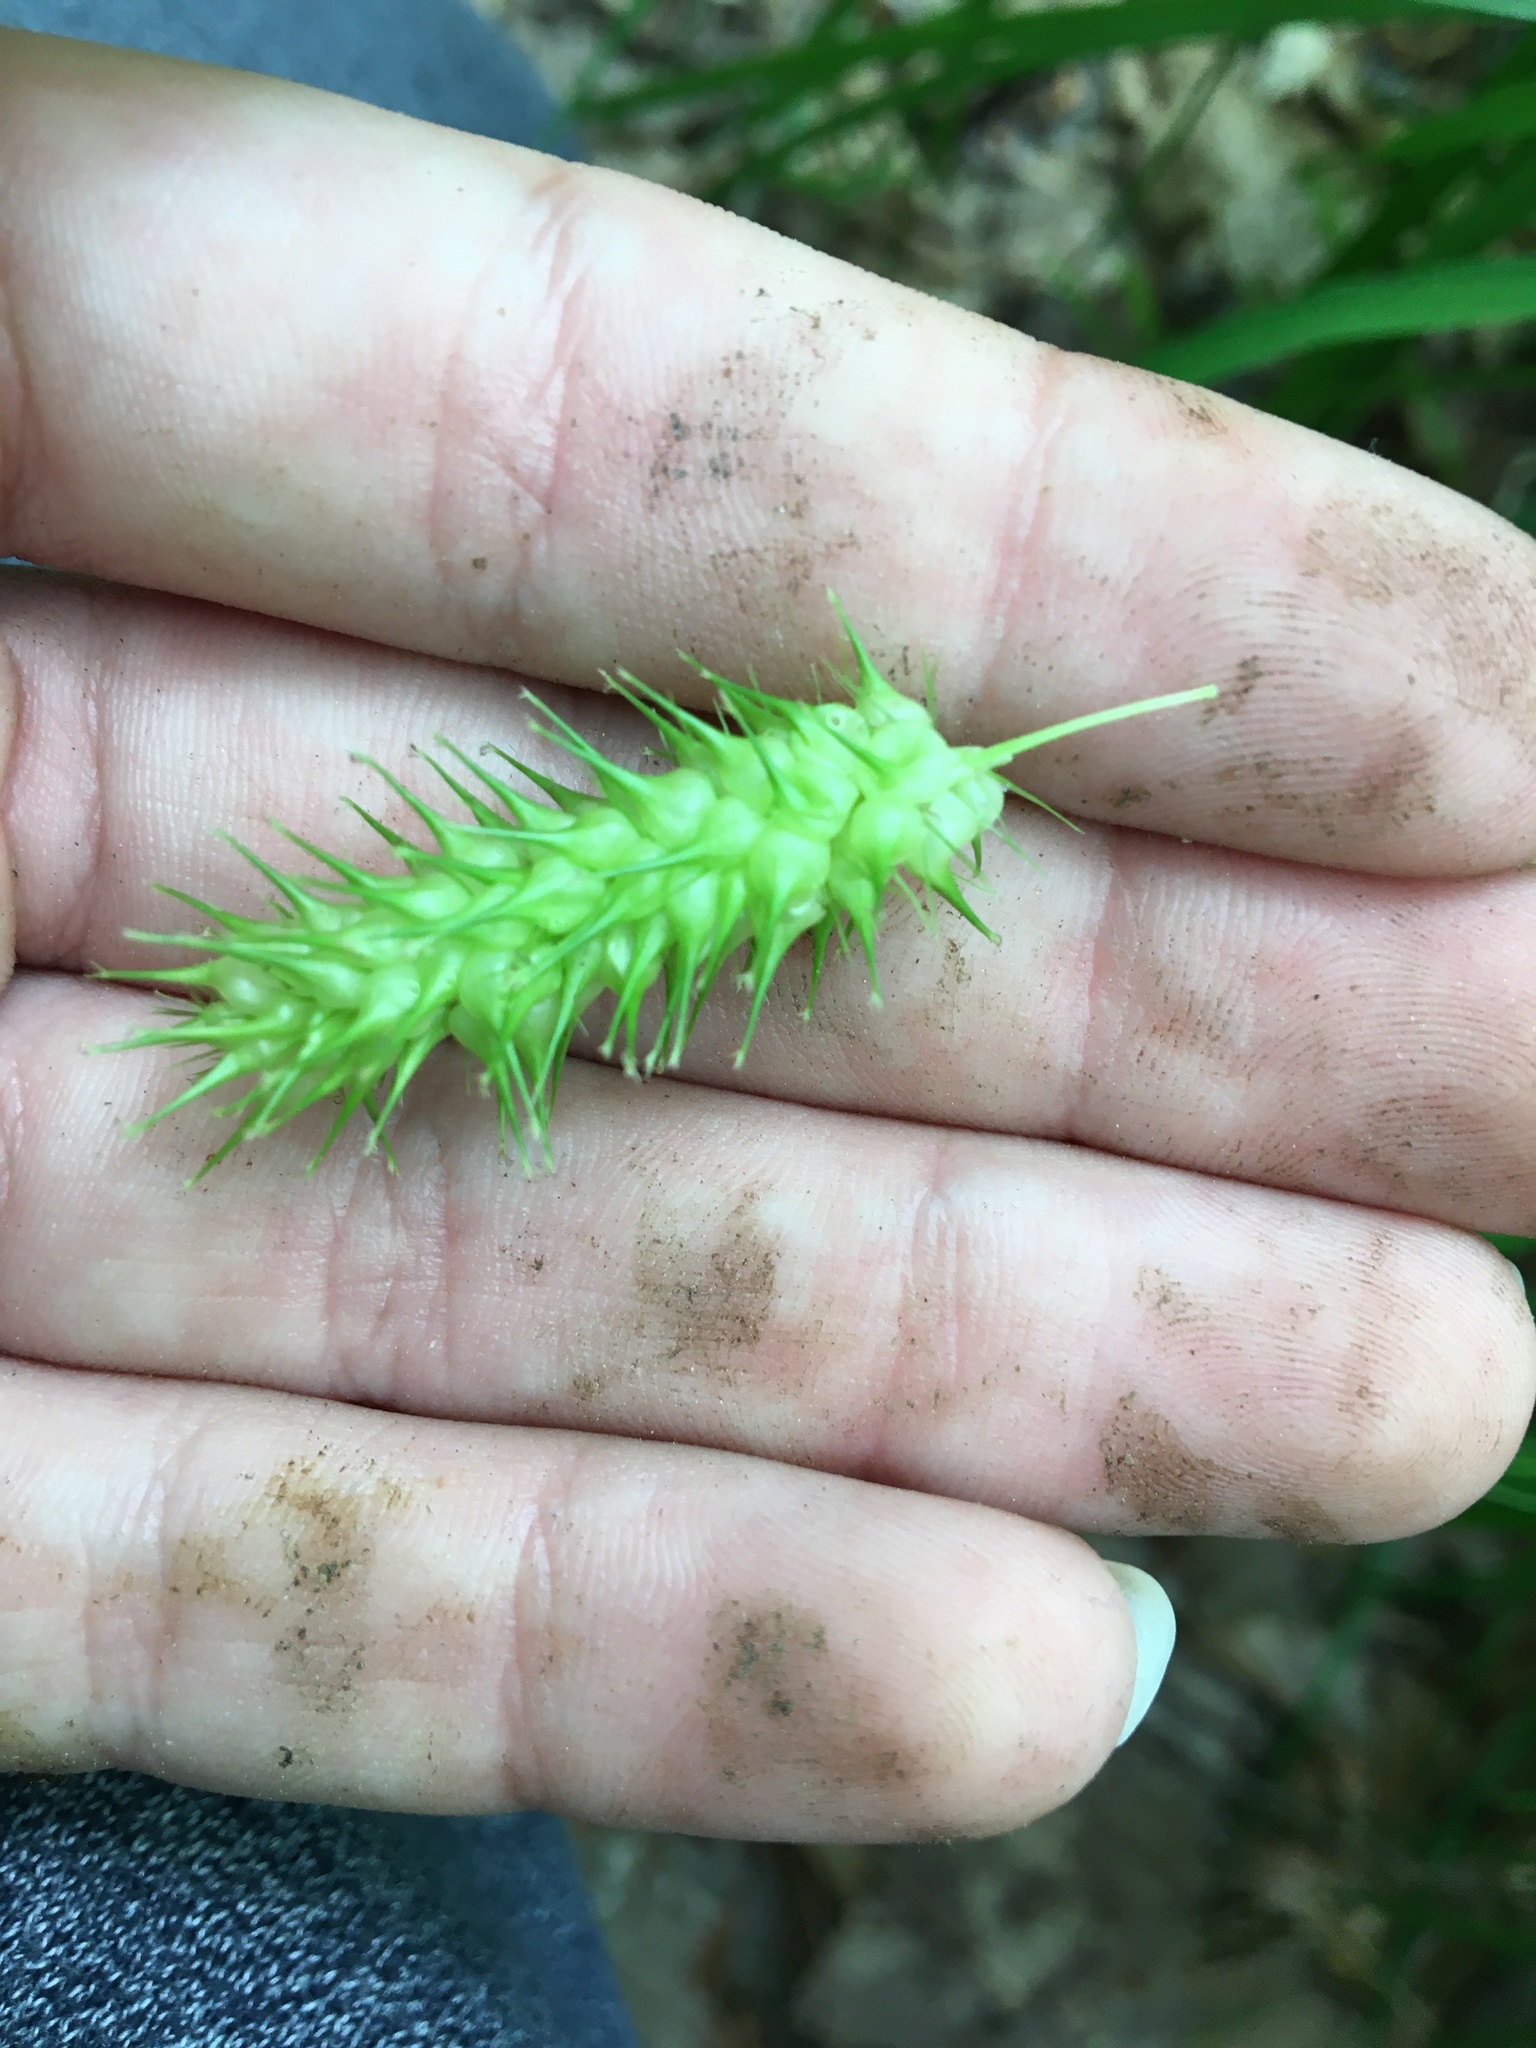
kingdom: Plantae
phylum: Tracheophyta
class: Liliopsida
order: Poales
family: Cyperaceae
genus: Carex
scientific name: Carex lurida
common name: Sallow sedge
